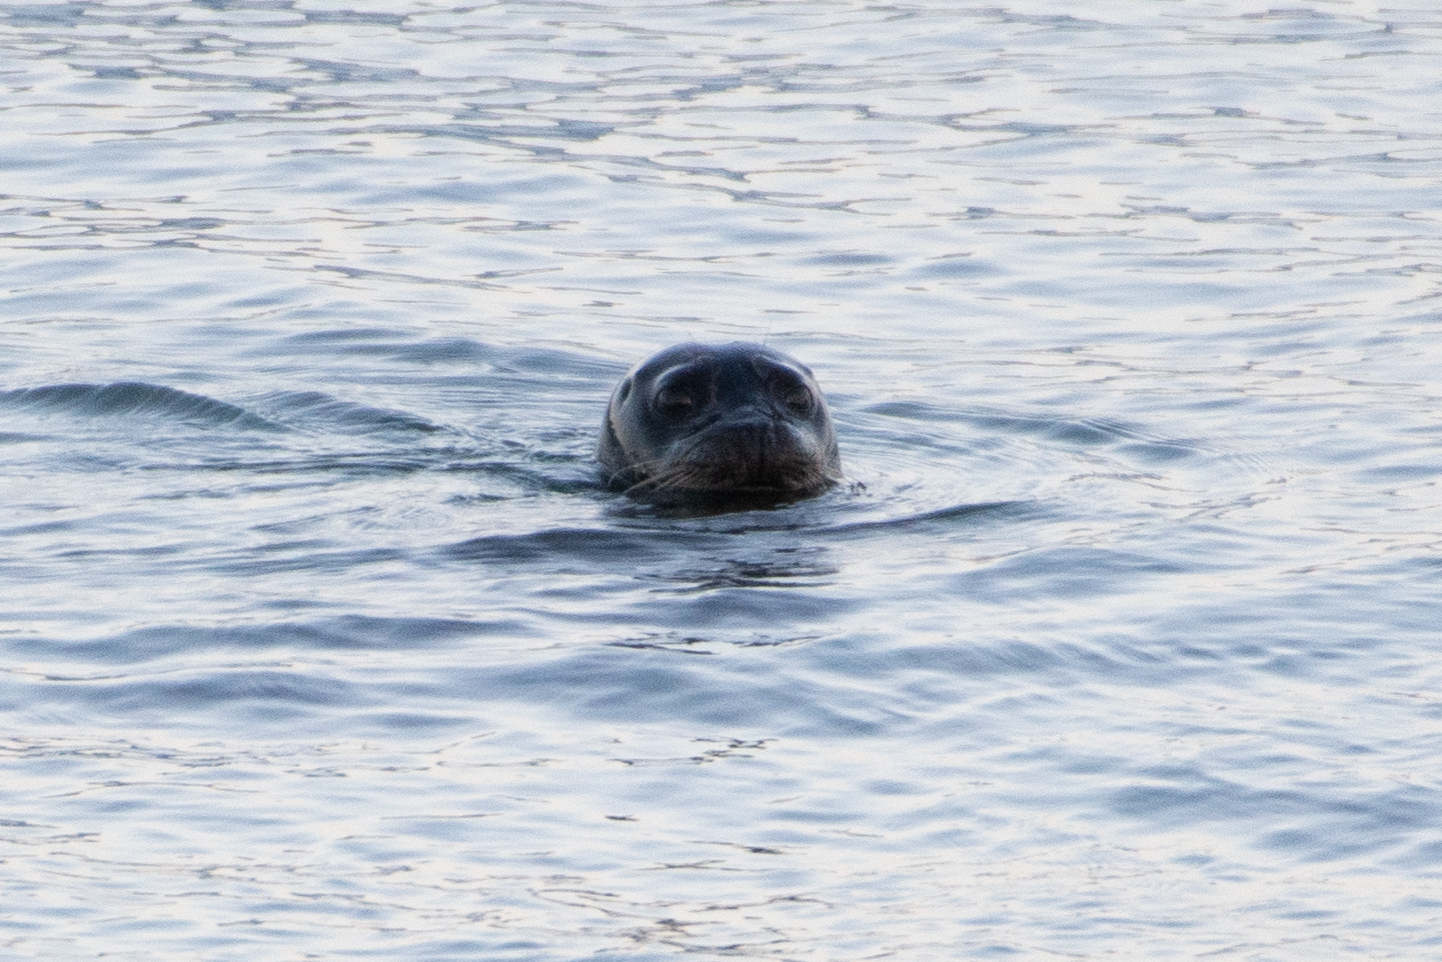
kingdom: Animalia
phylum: Chordata
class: Mammalia
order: Carnivora
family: Phocidae
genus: Phoca
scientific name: Phoca vitulina
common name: Harbor seal
